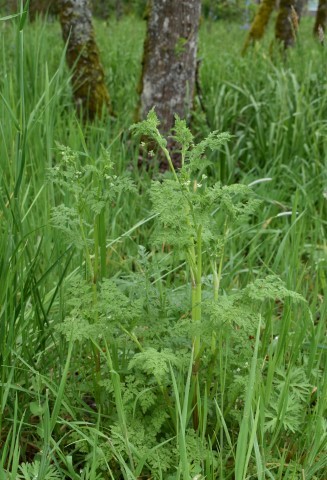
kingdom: Plantae
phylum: Tracheophyta
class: Magnoliopsida
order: Apiales
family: Apiaceae
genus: Anthriscus
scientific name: Anthriscus caucalis
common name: Bur chervil
